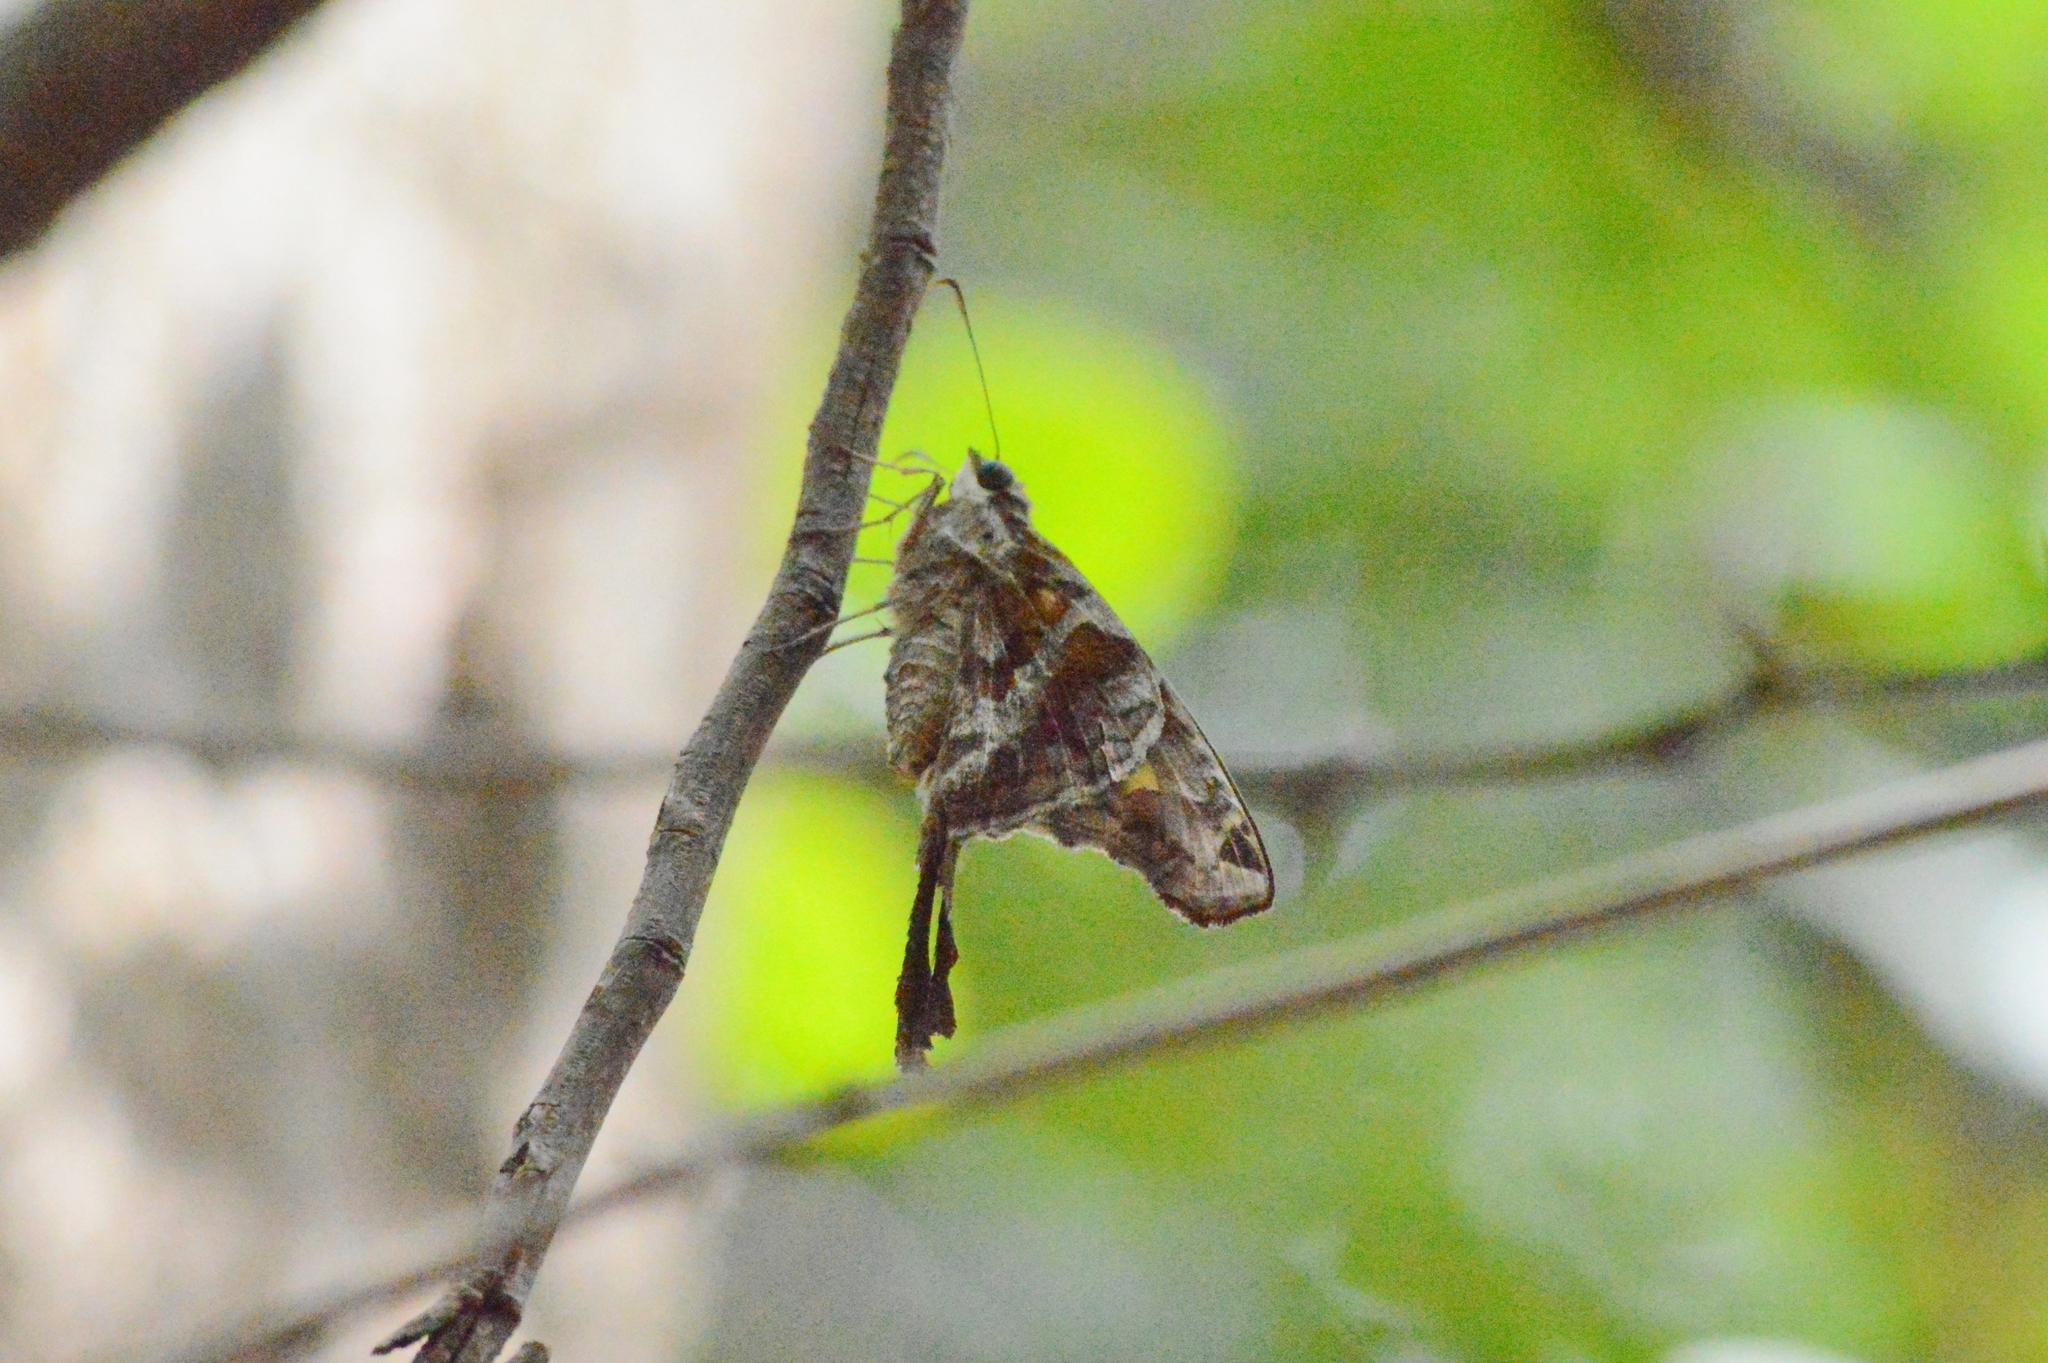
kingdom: Animalia
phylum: Arthropoda
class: Insecta
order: Lepidoptera
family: Hesperiidae
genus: Chioides
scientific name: Chioides catillus
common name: Silverbanded skipper
